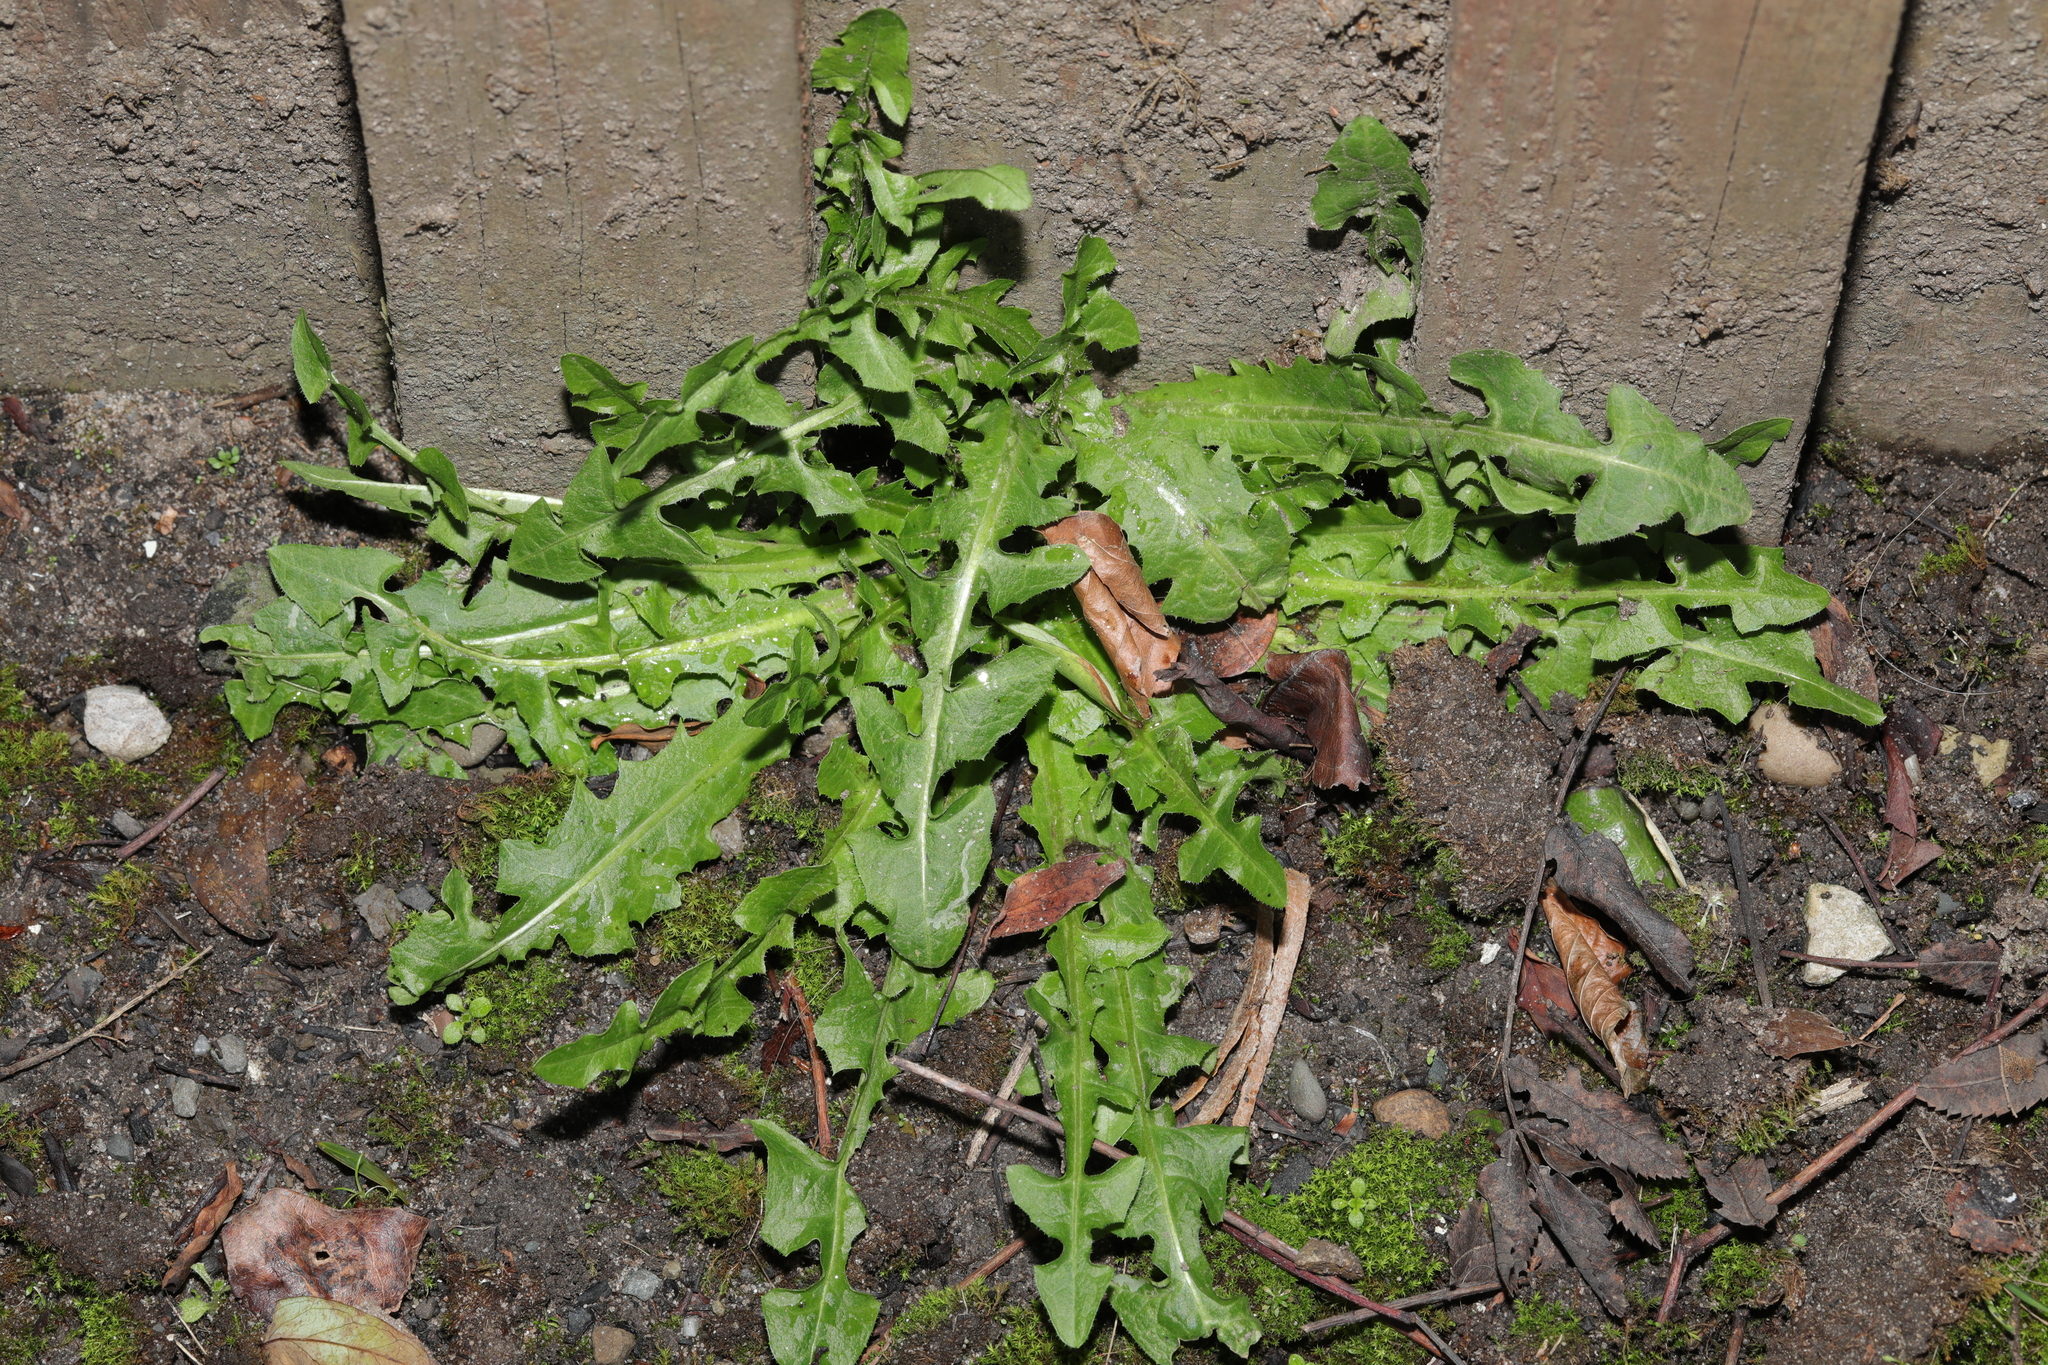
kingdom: Plantae
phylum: Tracheophyta
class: Magnoliopsida
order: Asterales
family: Asteraceae
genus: Taraxacum
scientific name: Taraxacum officinale
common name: Common dandelion
